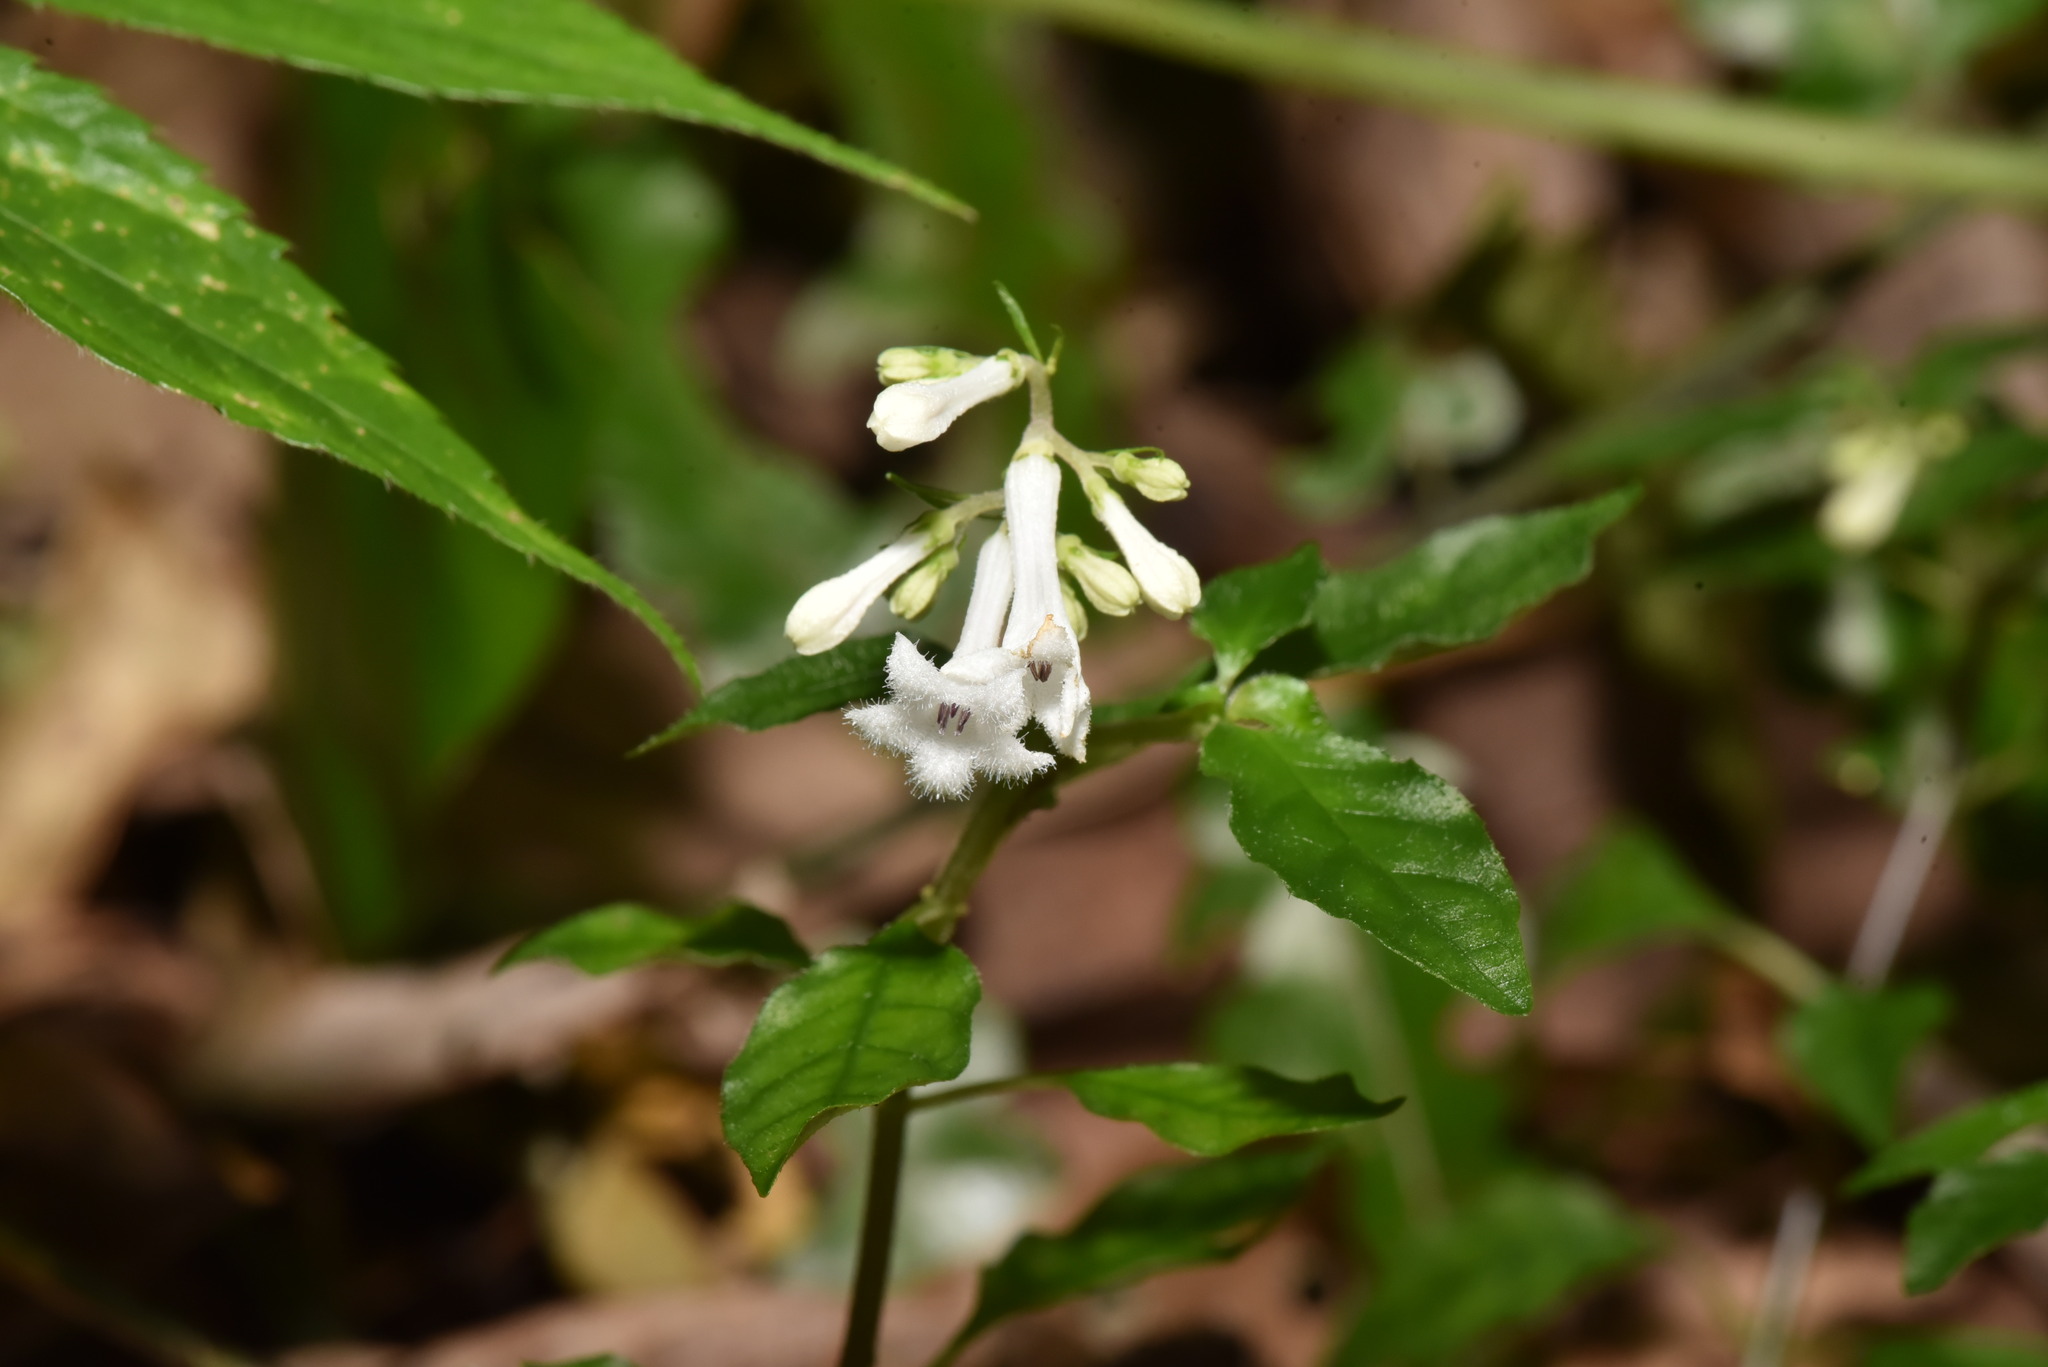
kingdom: Plantae
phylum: Tracheophyta
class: Magnoliopsida
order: Gentianales
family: Rubiaceae
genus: Ophiorrhiza
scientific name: Ophiorrhiza japonica
